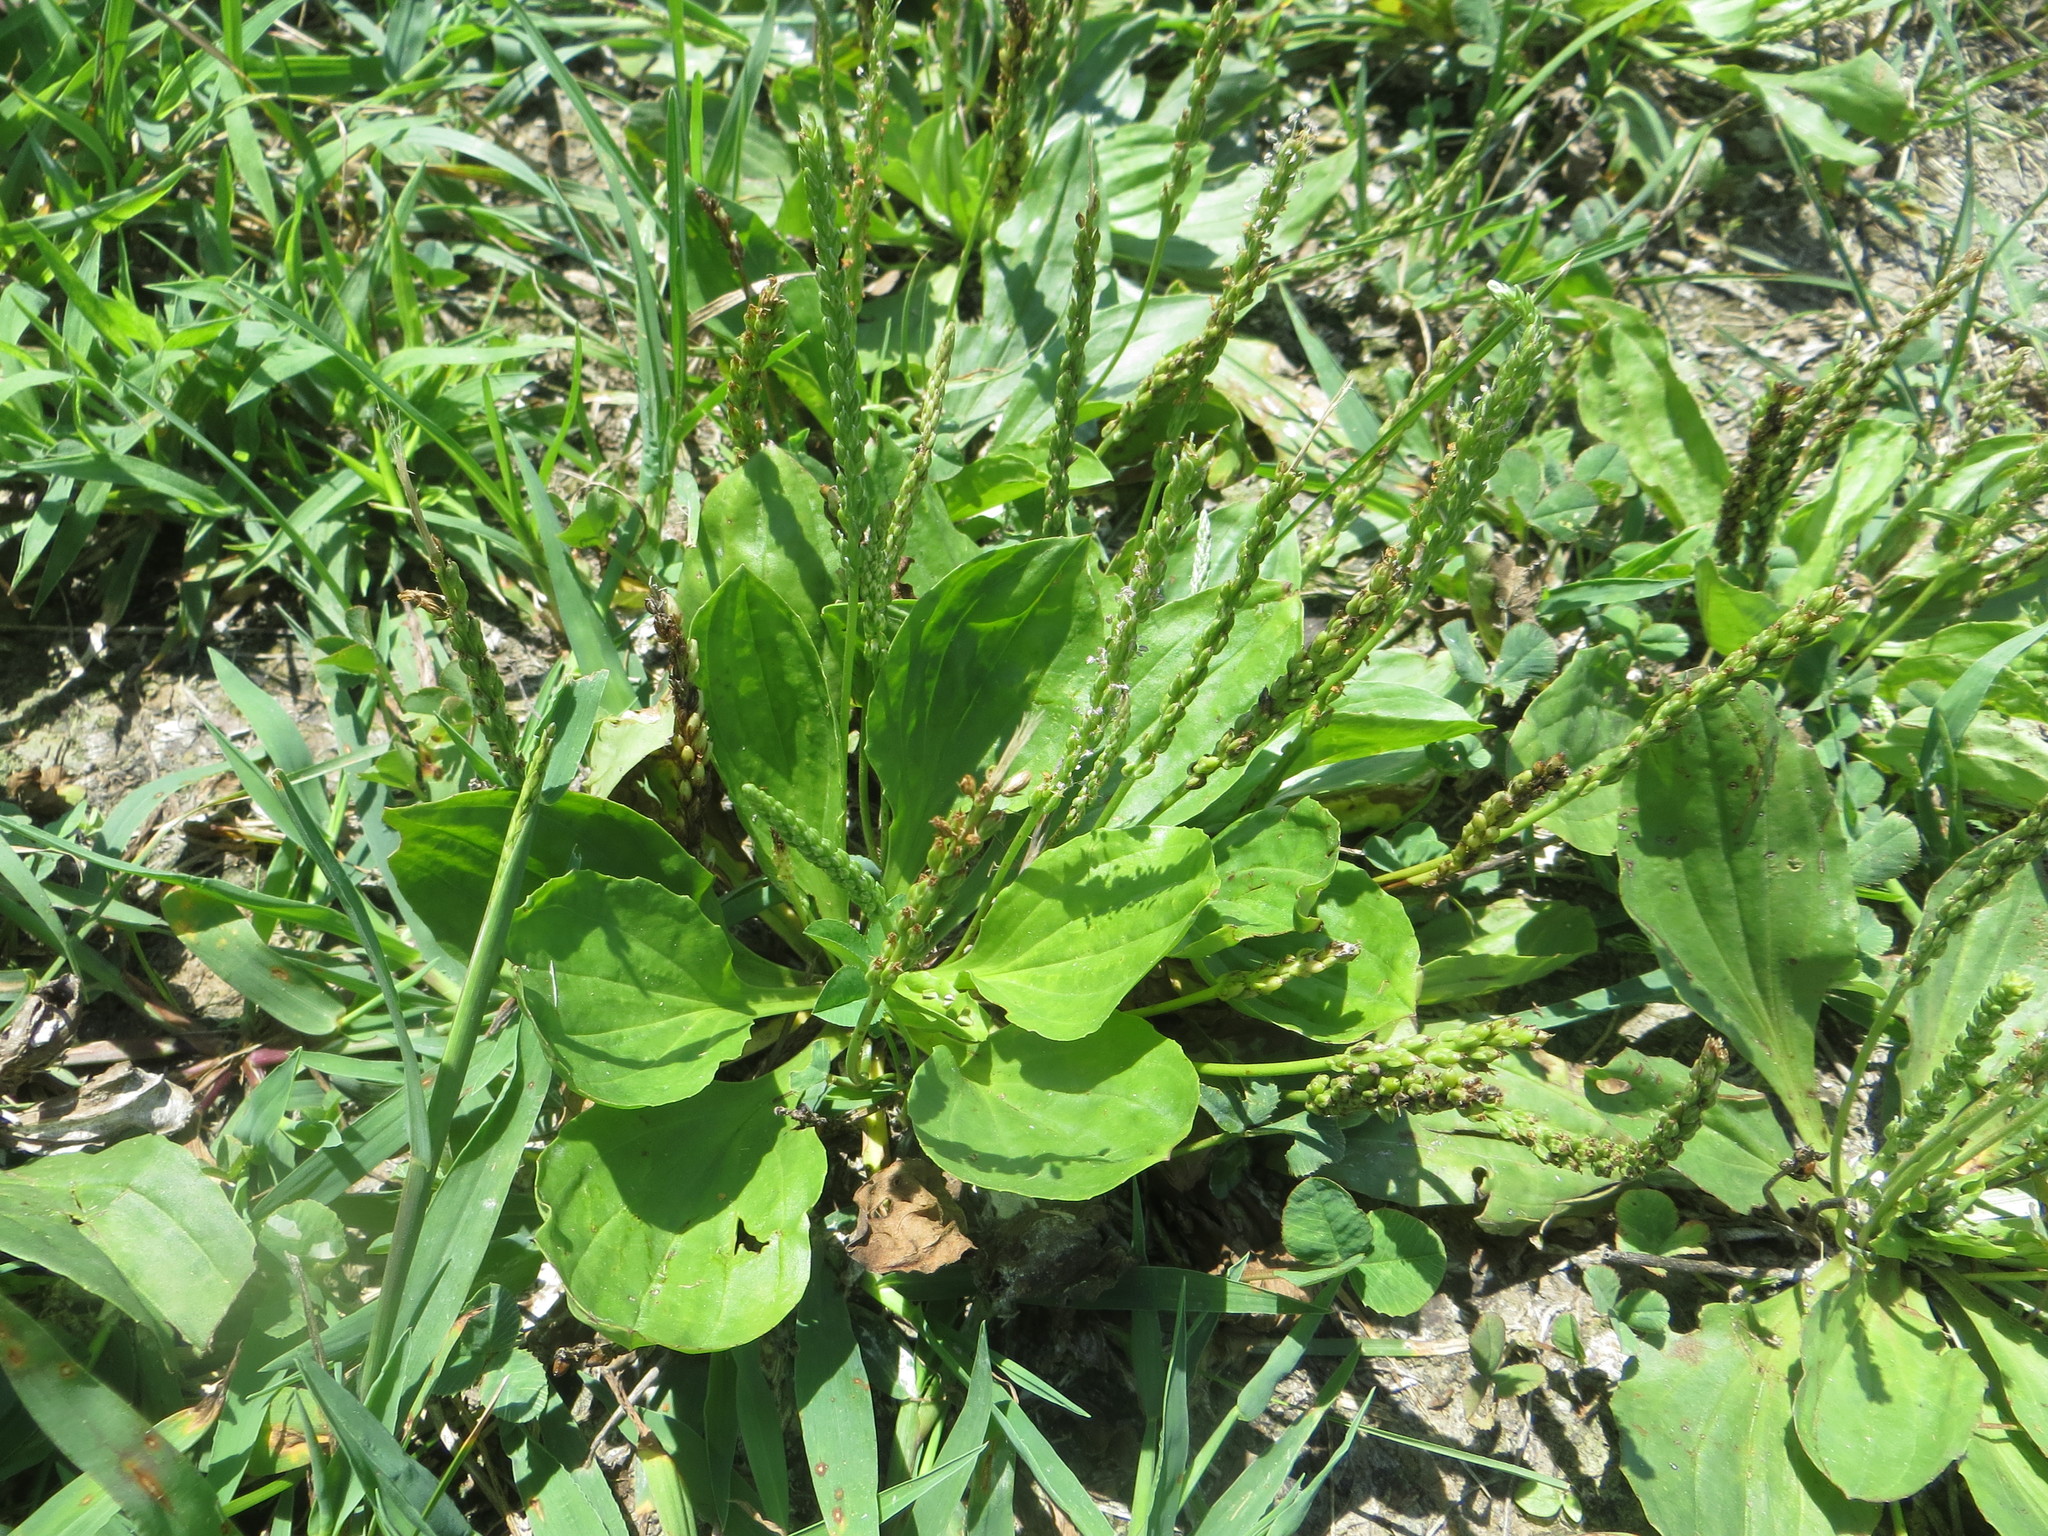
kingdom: Plantae
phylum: Tracheophyta
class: Magnoliopsida
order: Lamiales
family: Plantaginaceae
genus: Plantago
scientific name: Plantago rugelii
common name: American plantain
